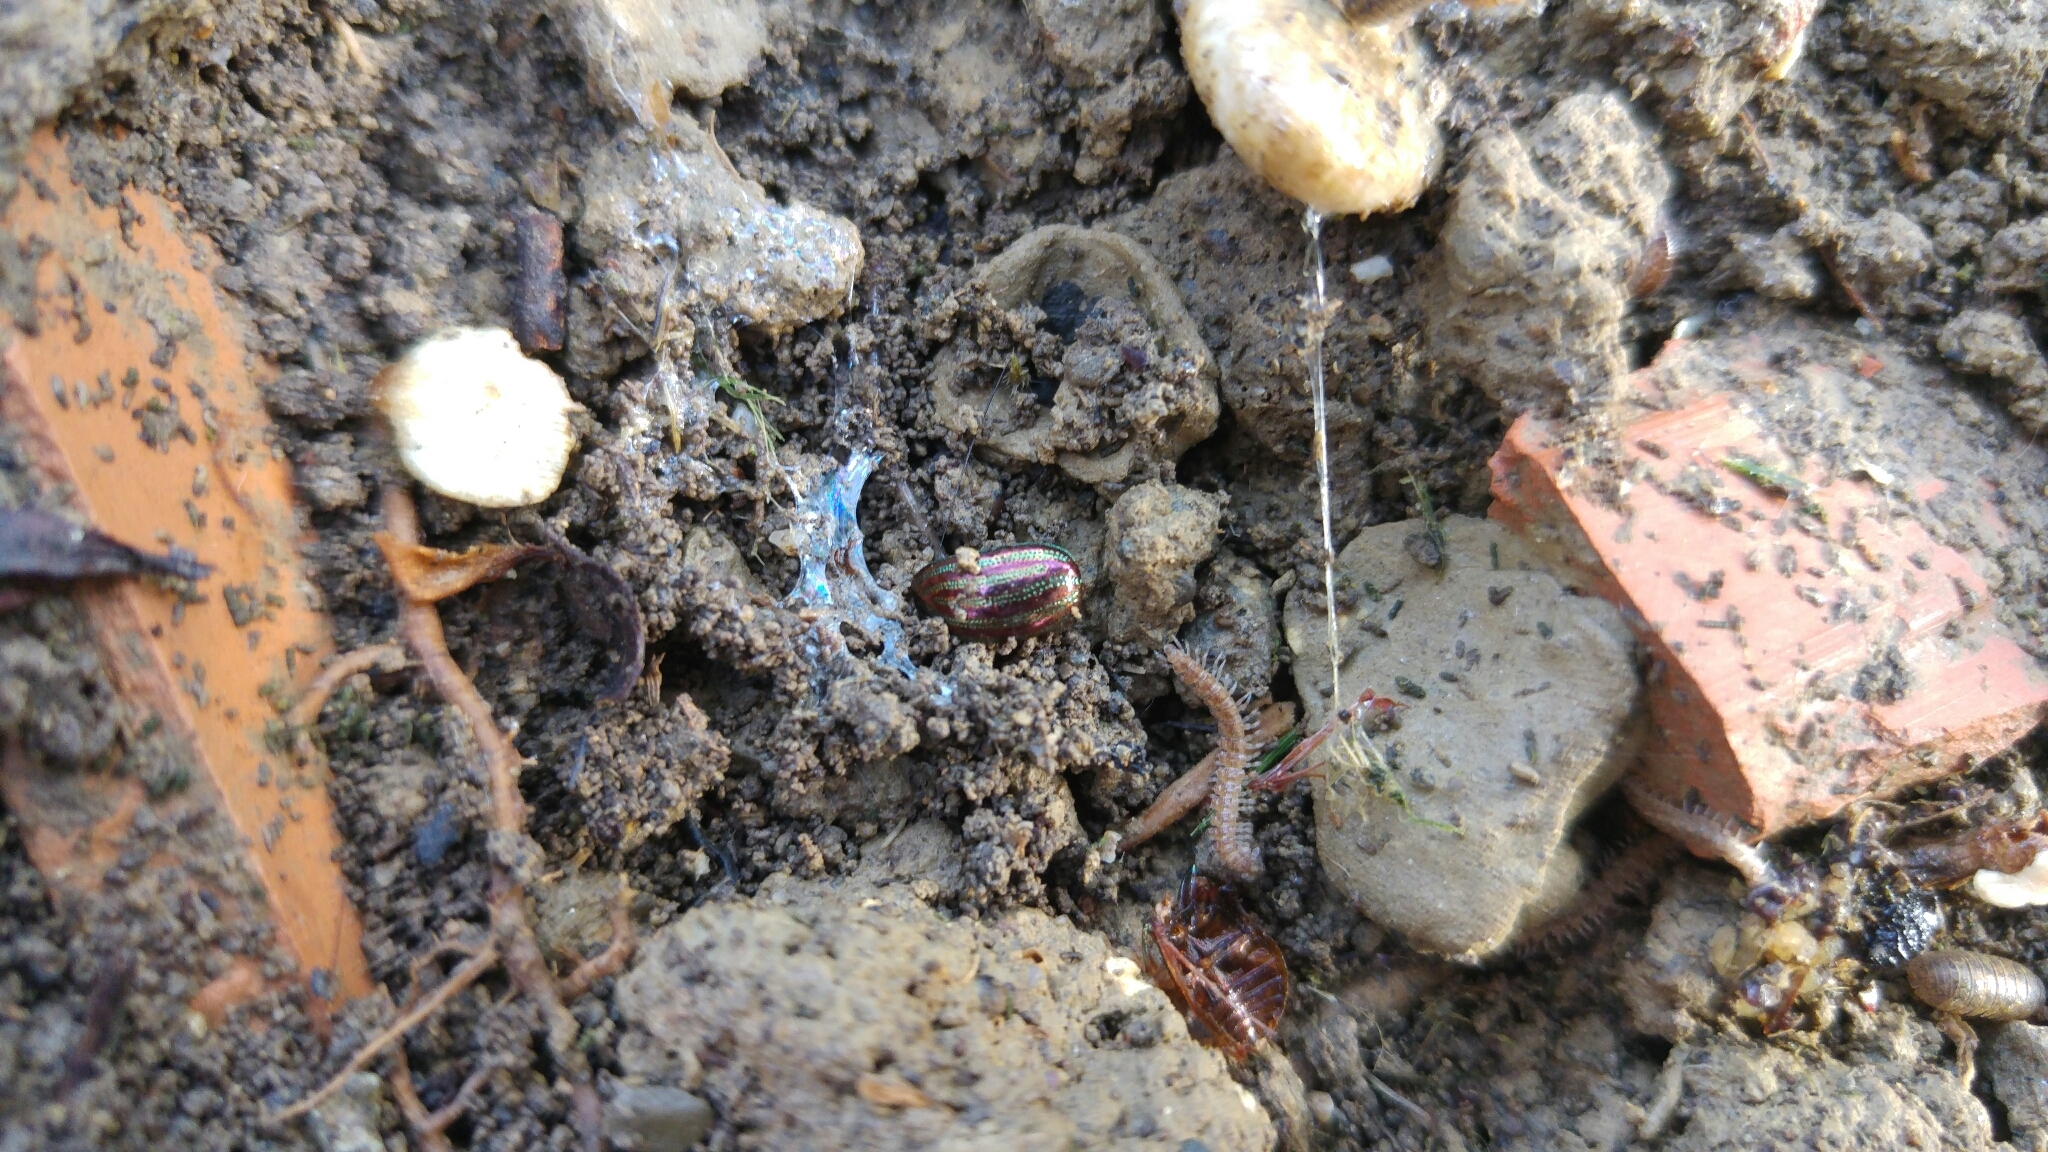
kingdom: Animalia
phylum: Arthropoda
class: Insecta
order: Coleoptera
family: Chrysomelidae
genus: Chrysolina
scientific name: Chrysolina americana
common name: Rosemary beetle
